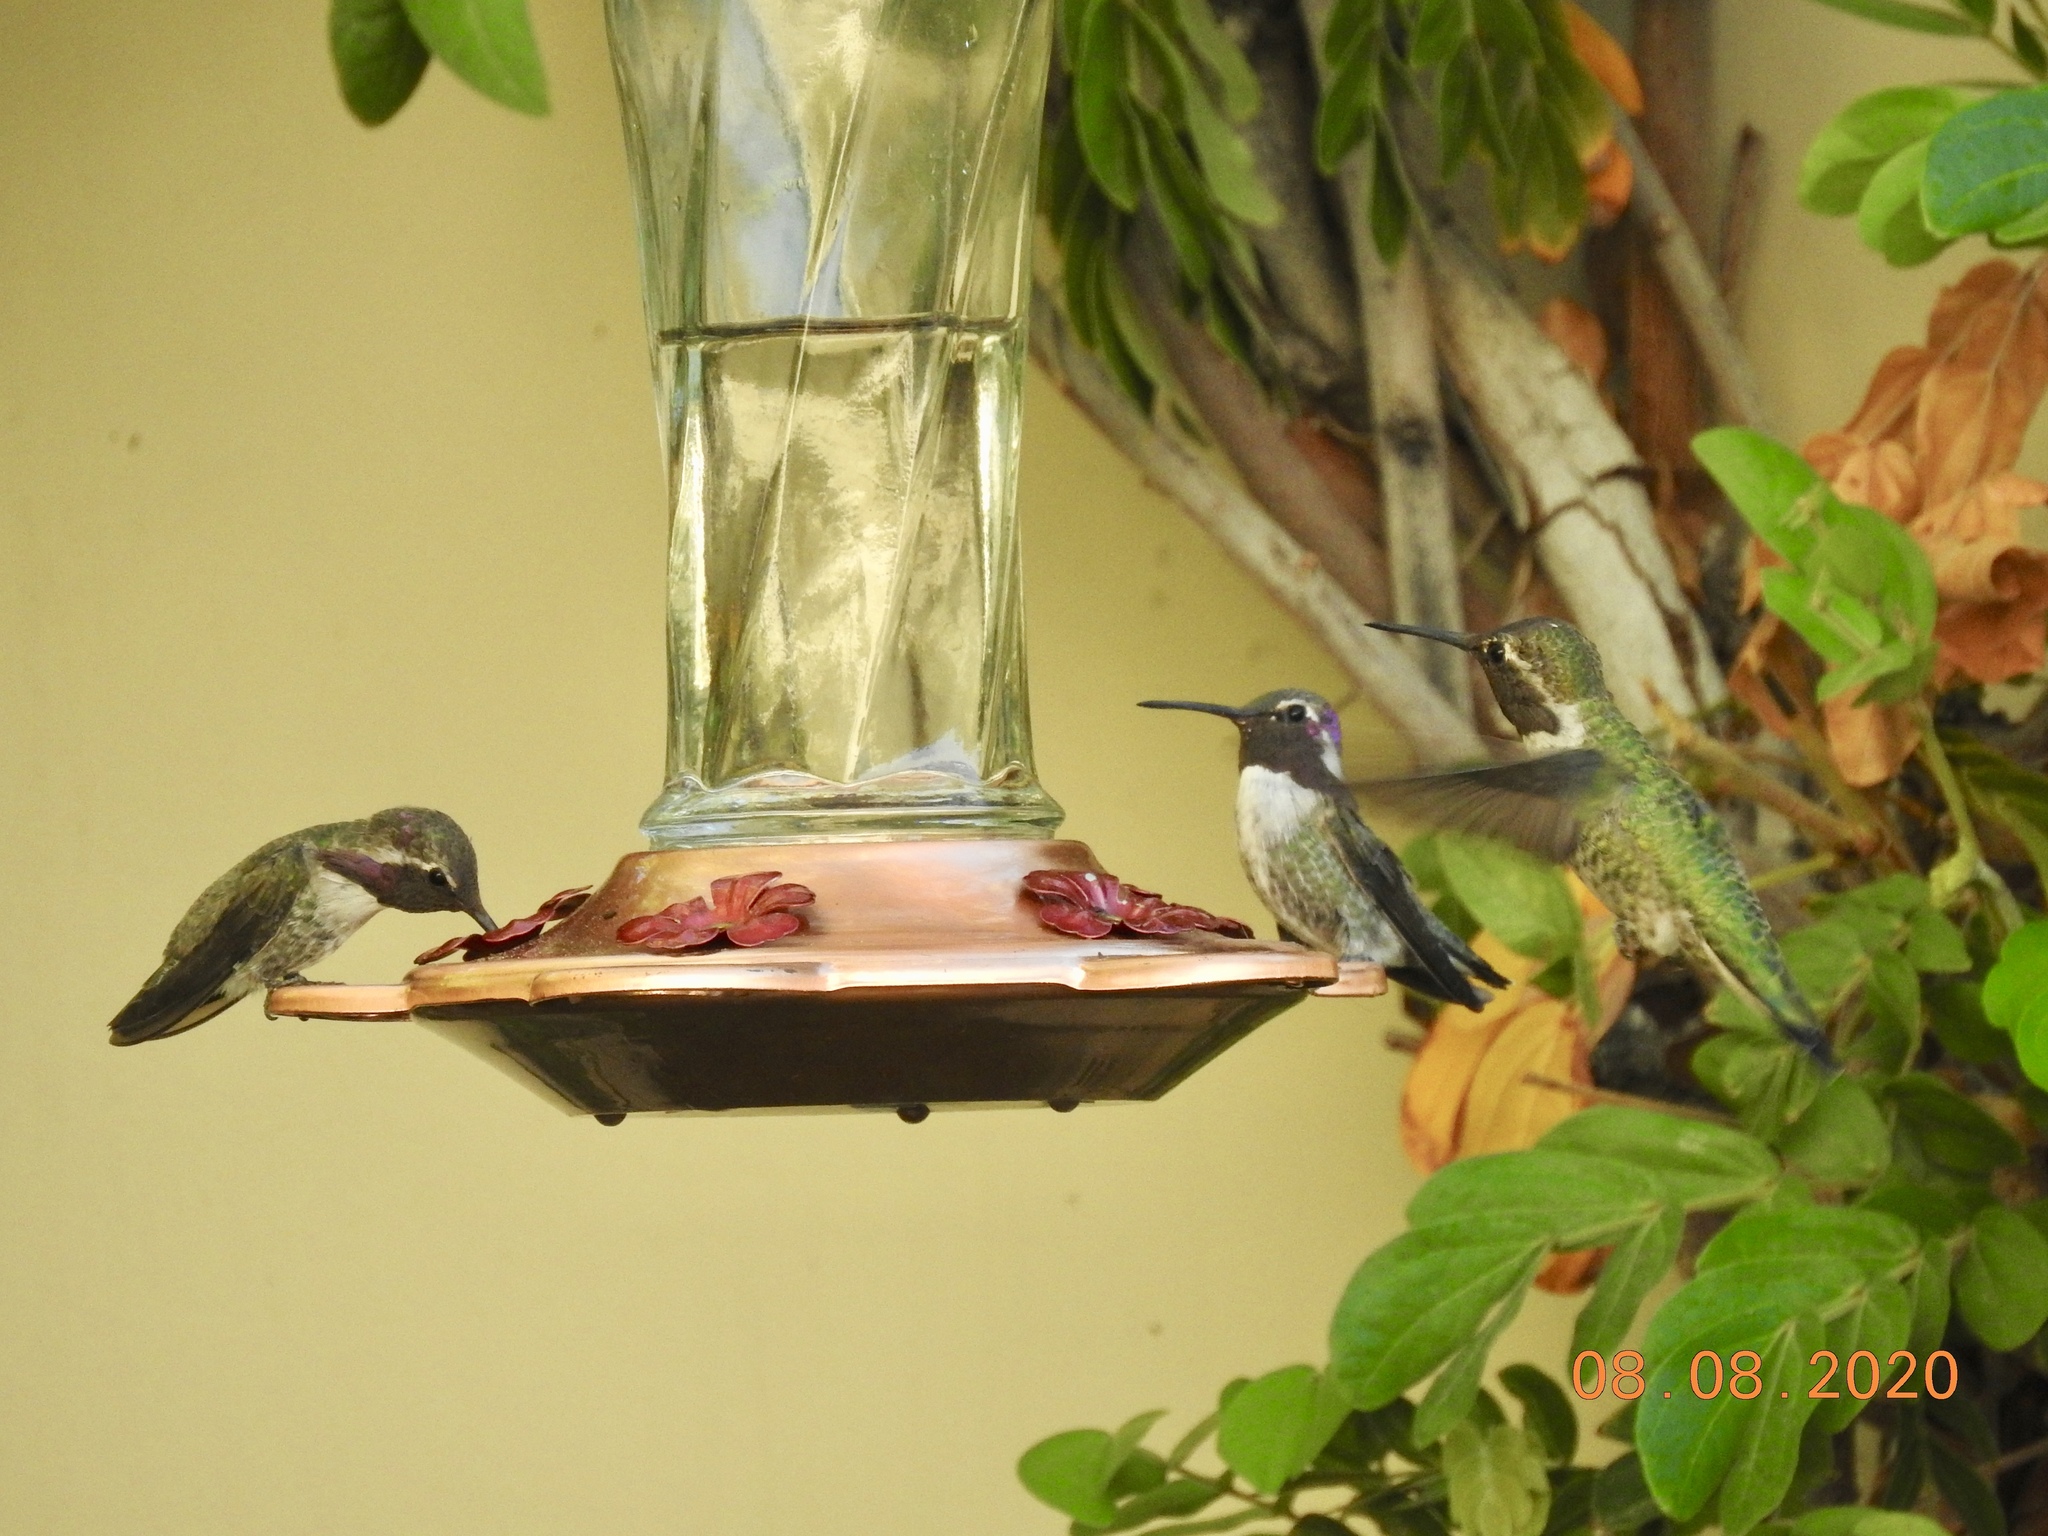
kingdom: Animalia
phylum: Chordata
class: Aves
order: Apodiformes
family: Trochilidae
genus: Calypte
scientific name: Calypte costae
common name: Costa's hummingbird
